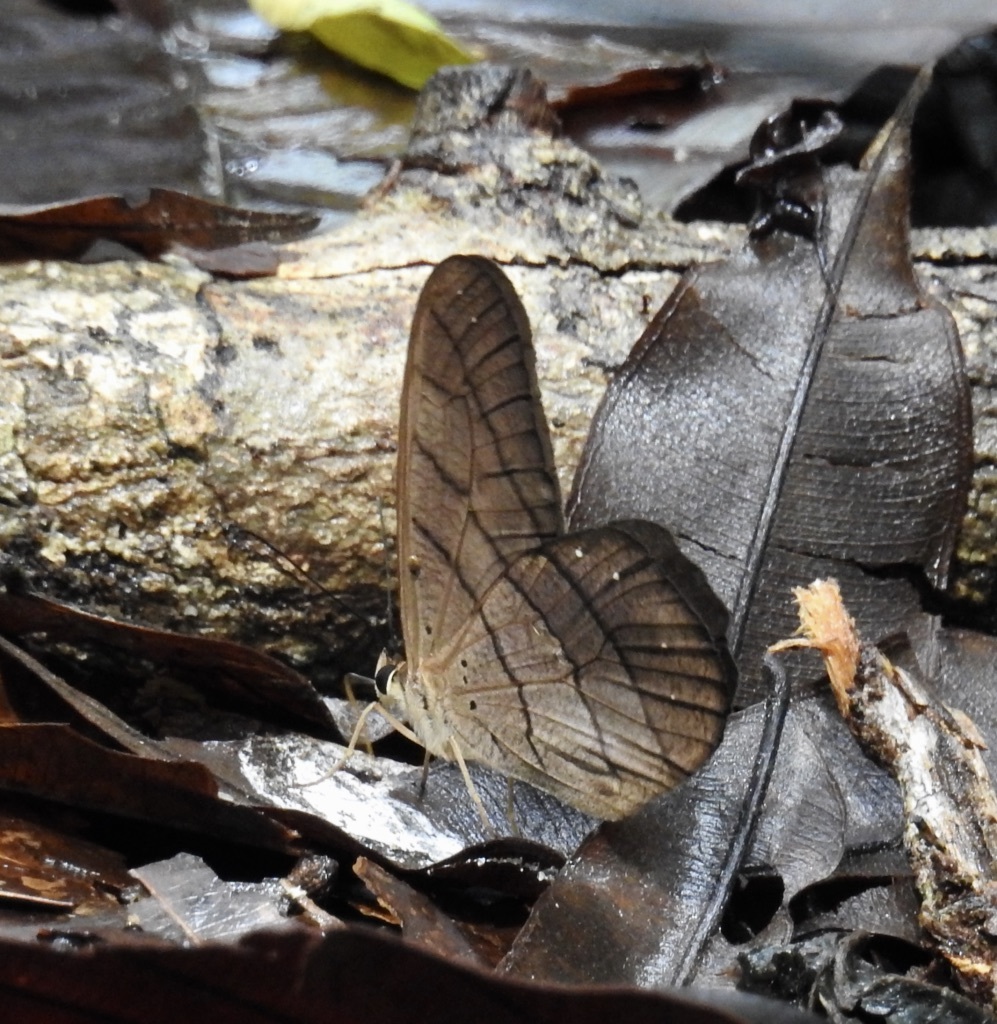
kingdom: Animalia
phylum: Arthropoda
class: Insecta
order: Lepidoptera
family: Nymphalidae
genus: Pierella
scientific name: Pierella rhea
